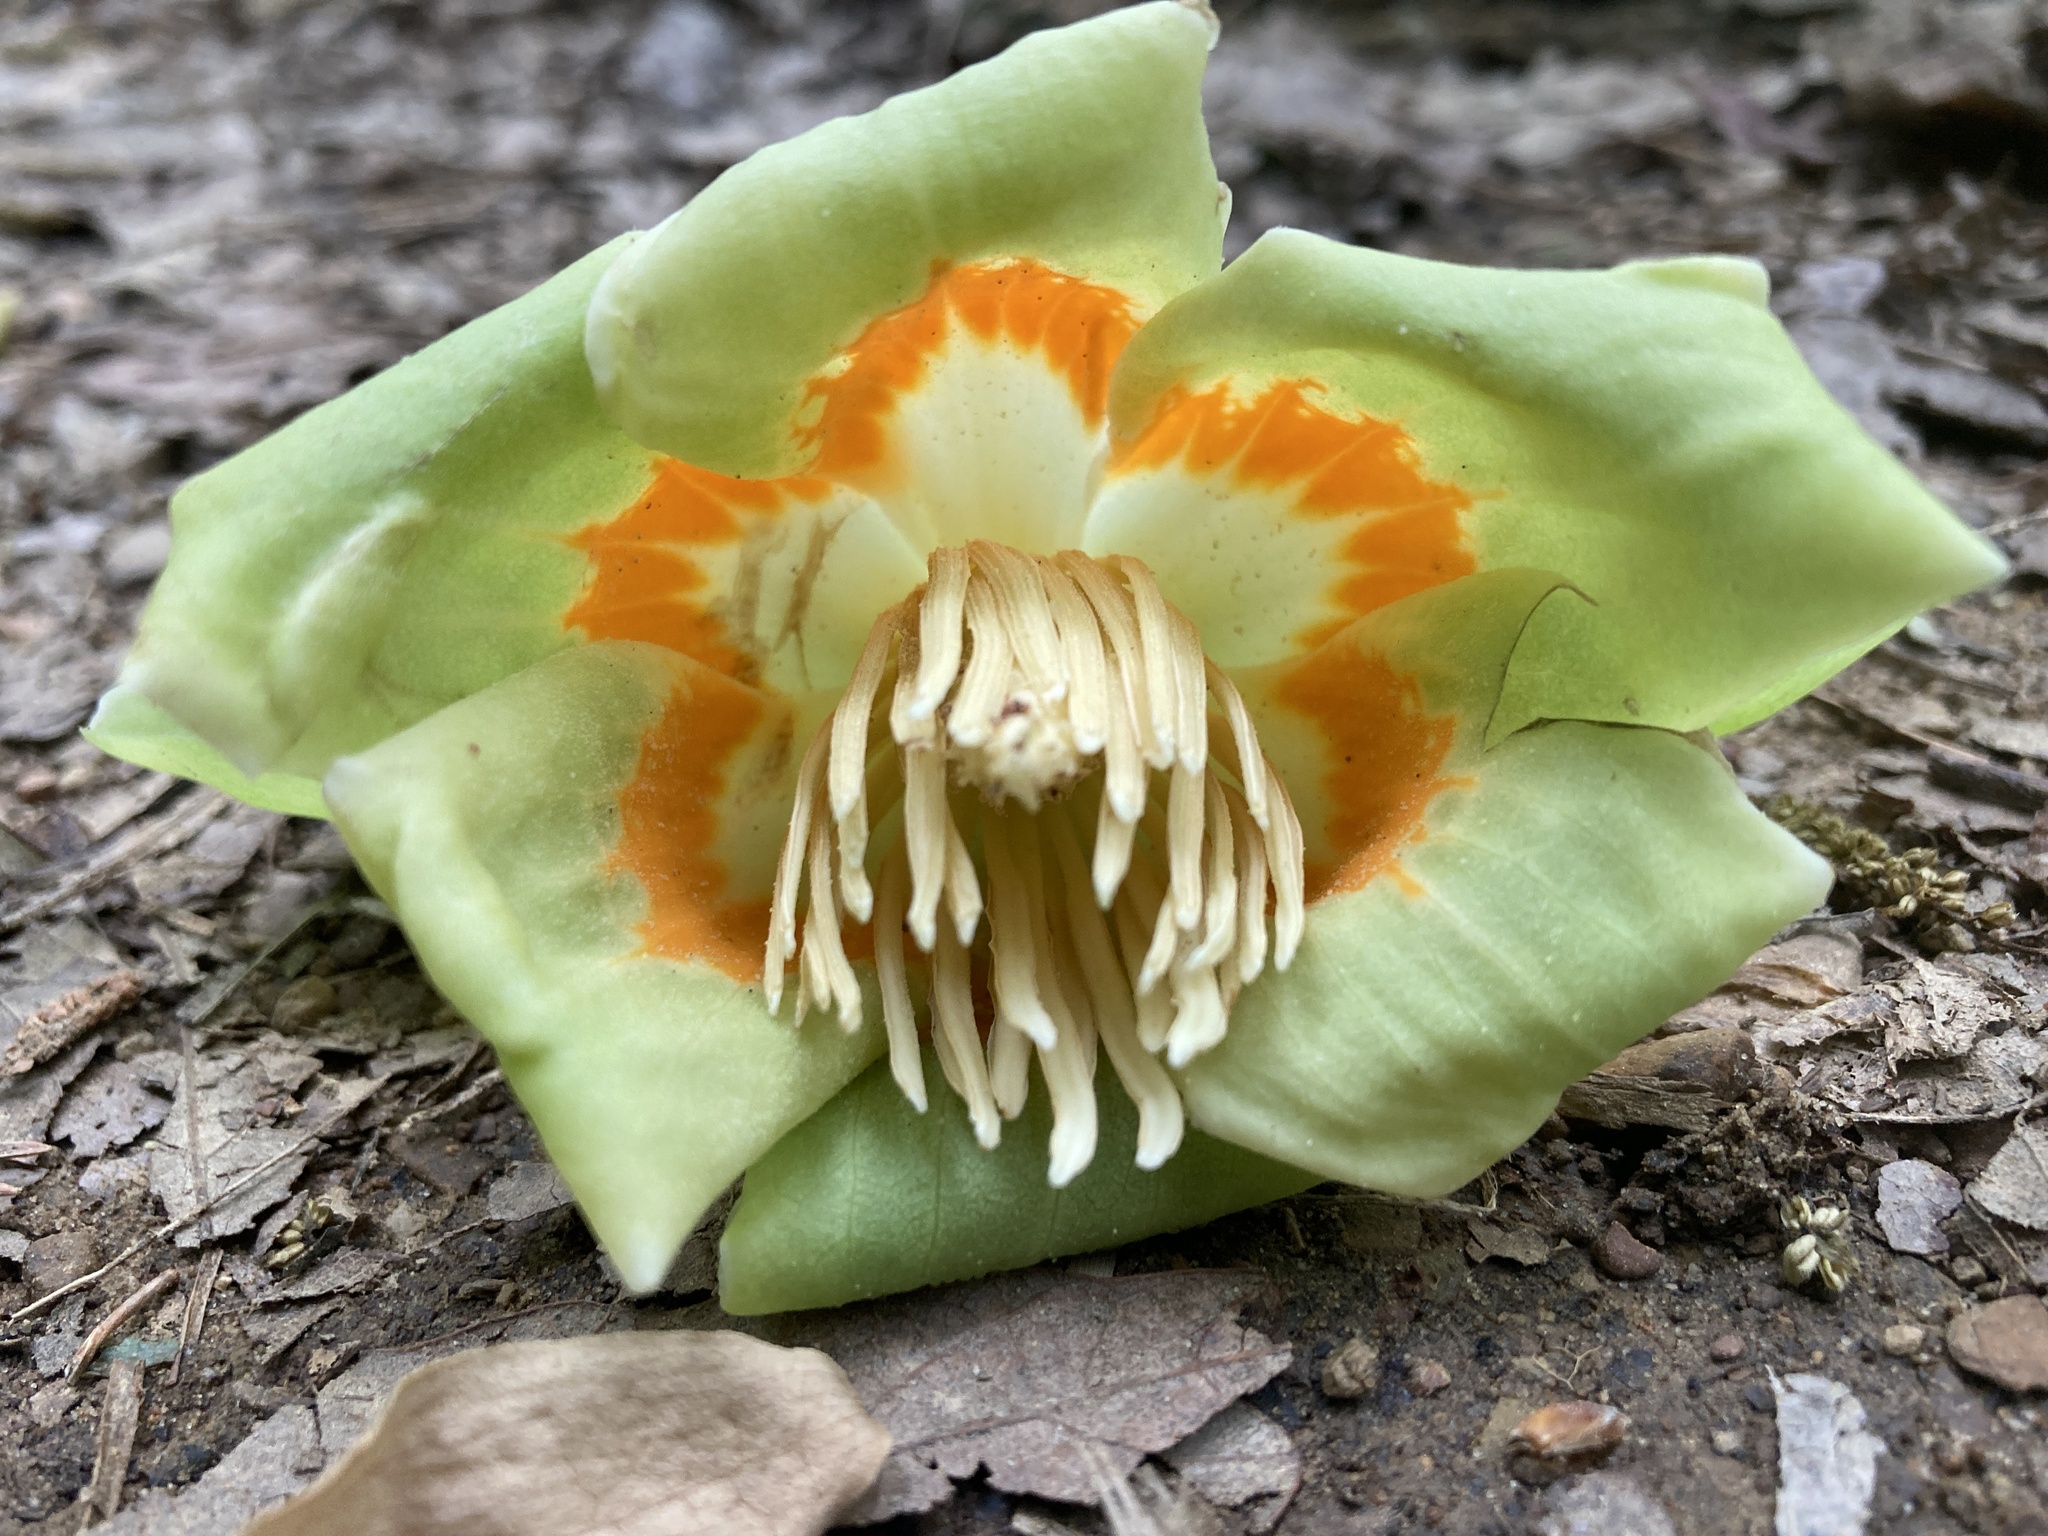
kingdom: Plantae
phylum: Tracheophyta
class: Magnoliopsida
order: Magnoliales
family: Magnoliaceae
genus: Liriodendron
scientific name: Liriodendron tulipifera
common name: Tulip tree
